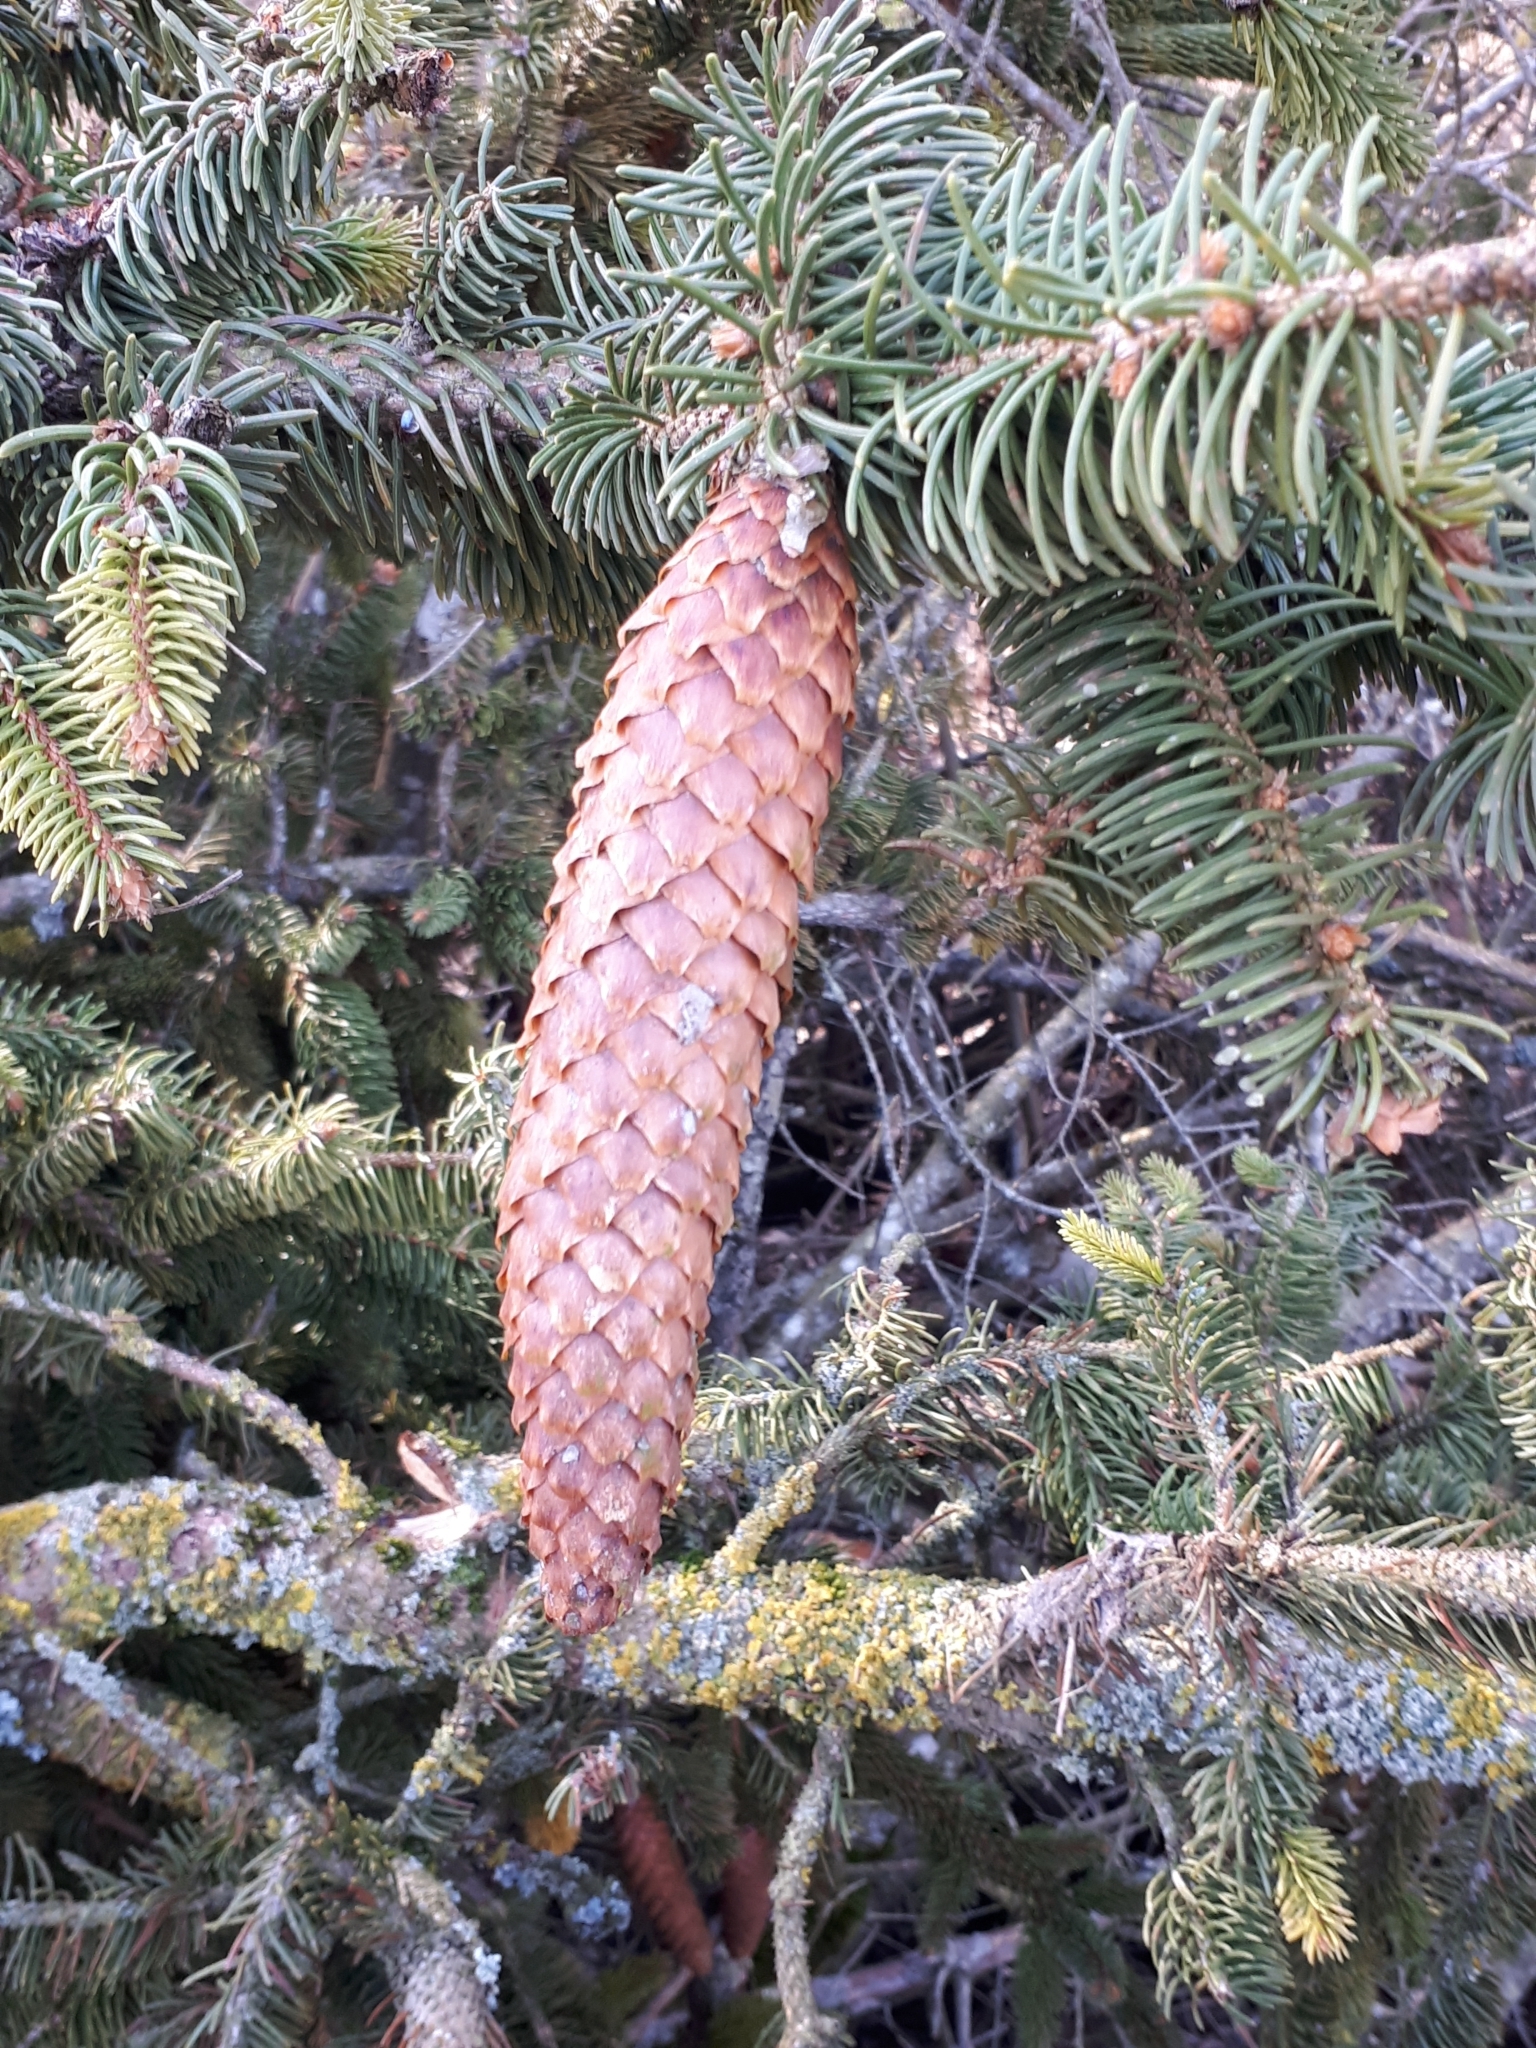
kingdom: Plantae
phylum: Tracheophyta
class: Pinopsida
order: Pinales
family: Pinaceae
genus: Picea
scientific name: Picea abies
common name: Norway spruce
